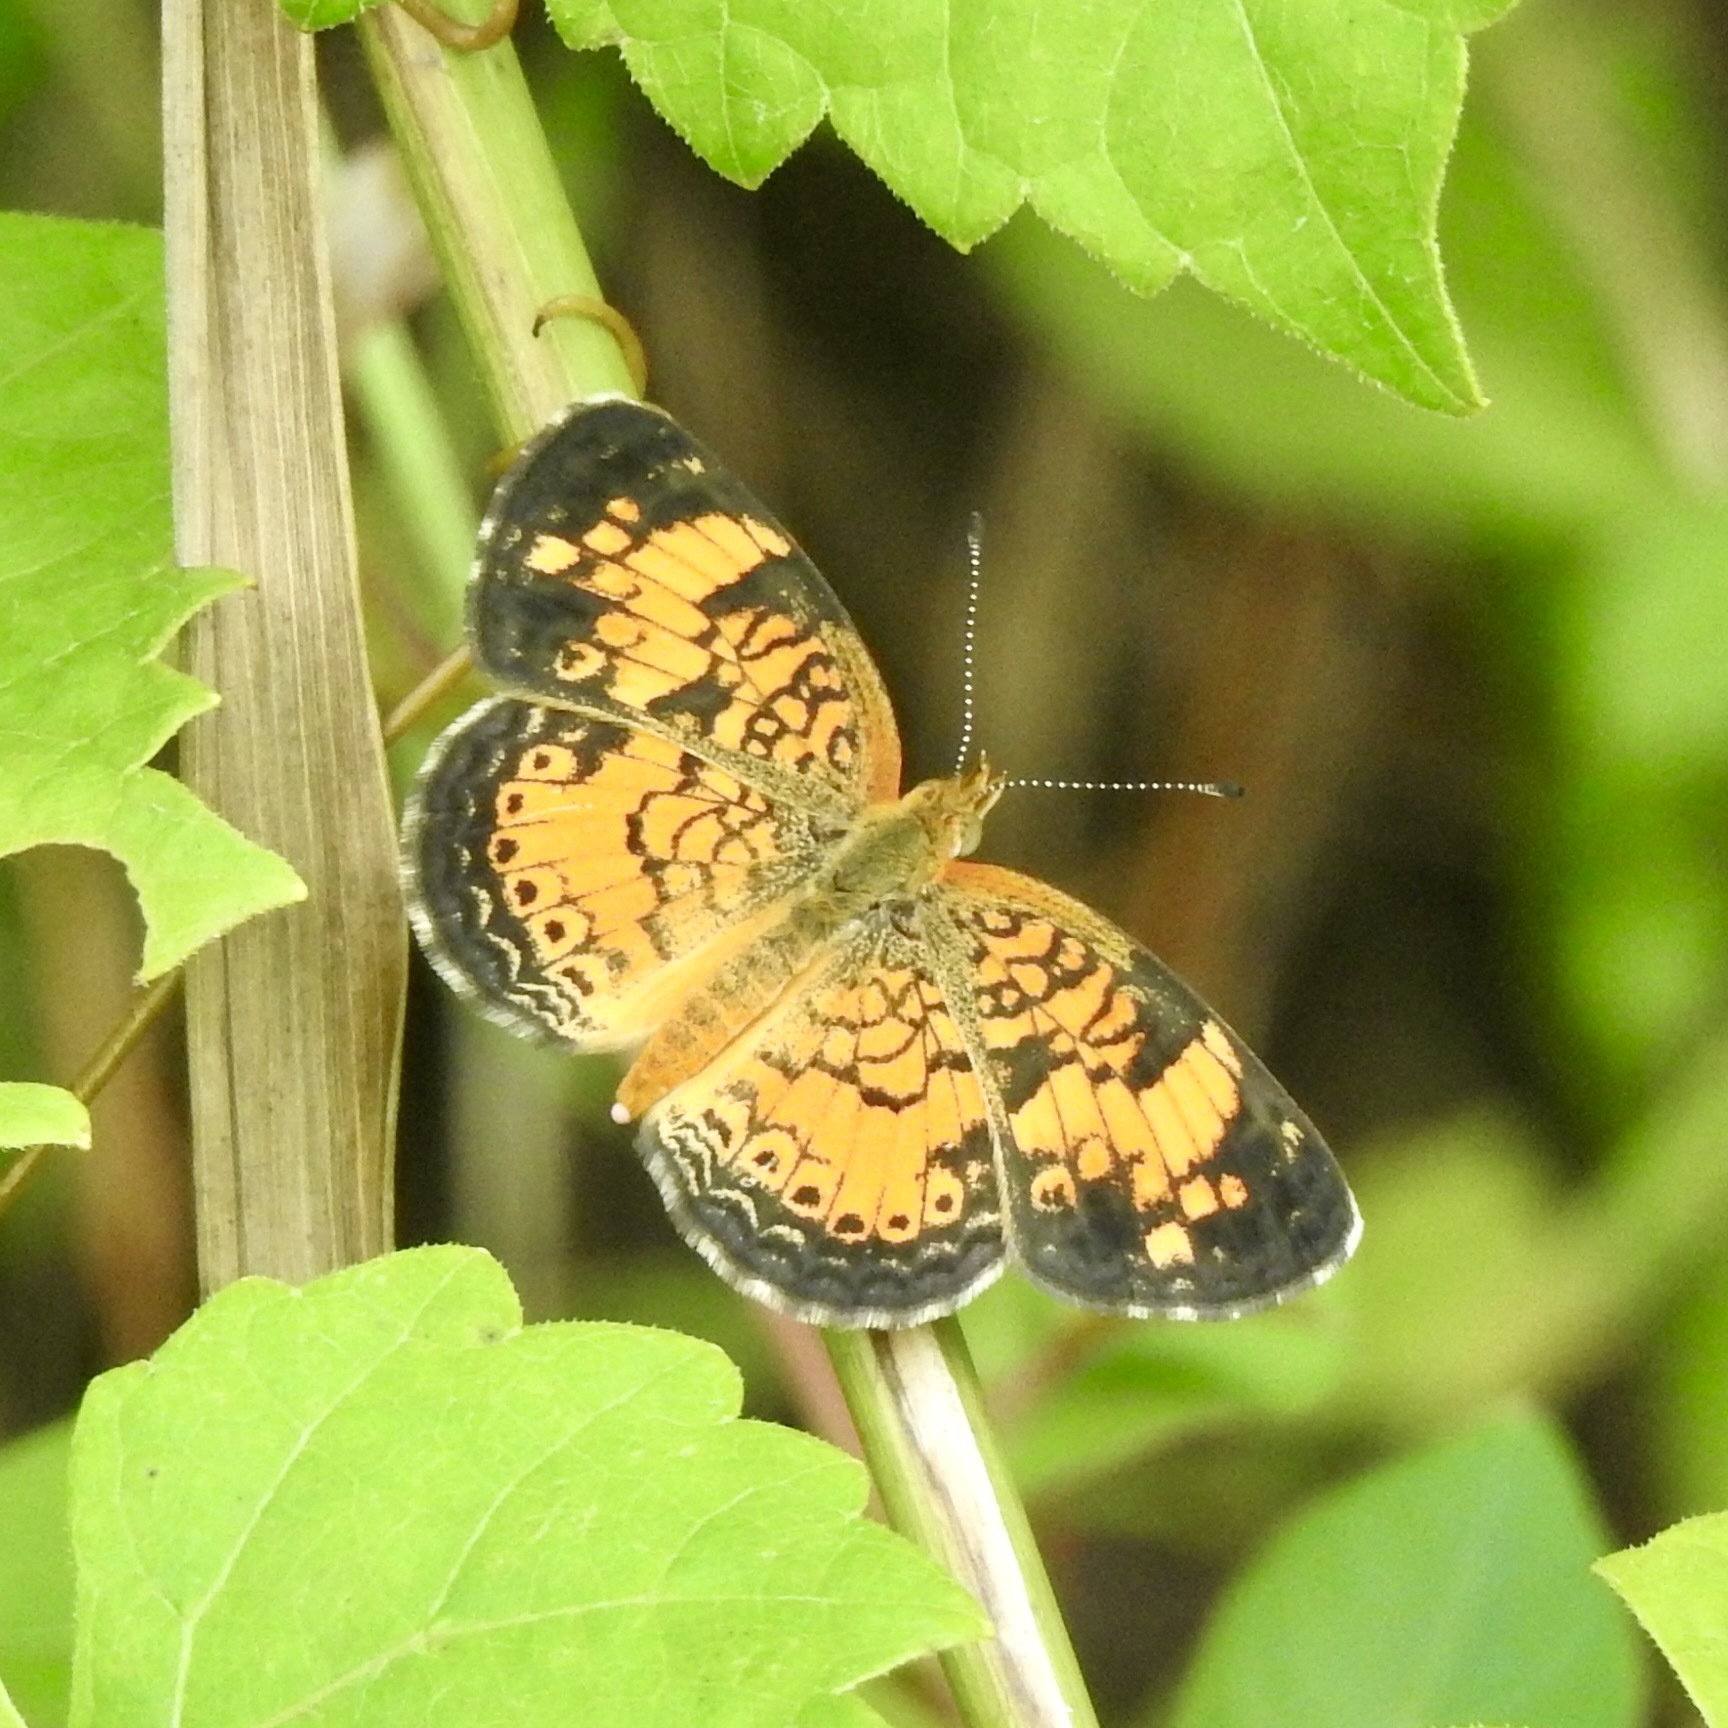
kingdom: Animalia
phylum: Arthropoda
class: Insecta
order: Lepidoptera
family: Nymphalidae
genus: Phyciodes
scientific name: Phyciodes tharos
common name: Pearl crescent
